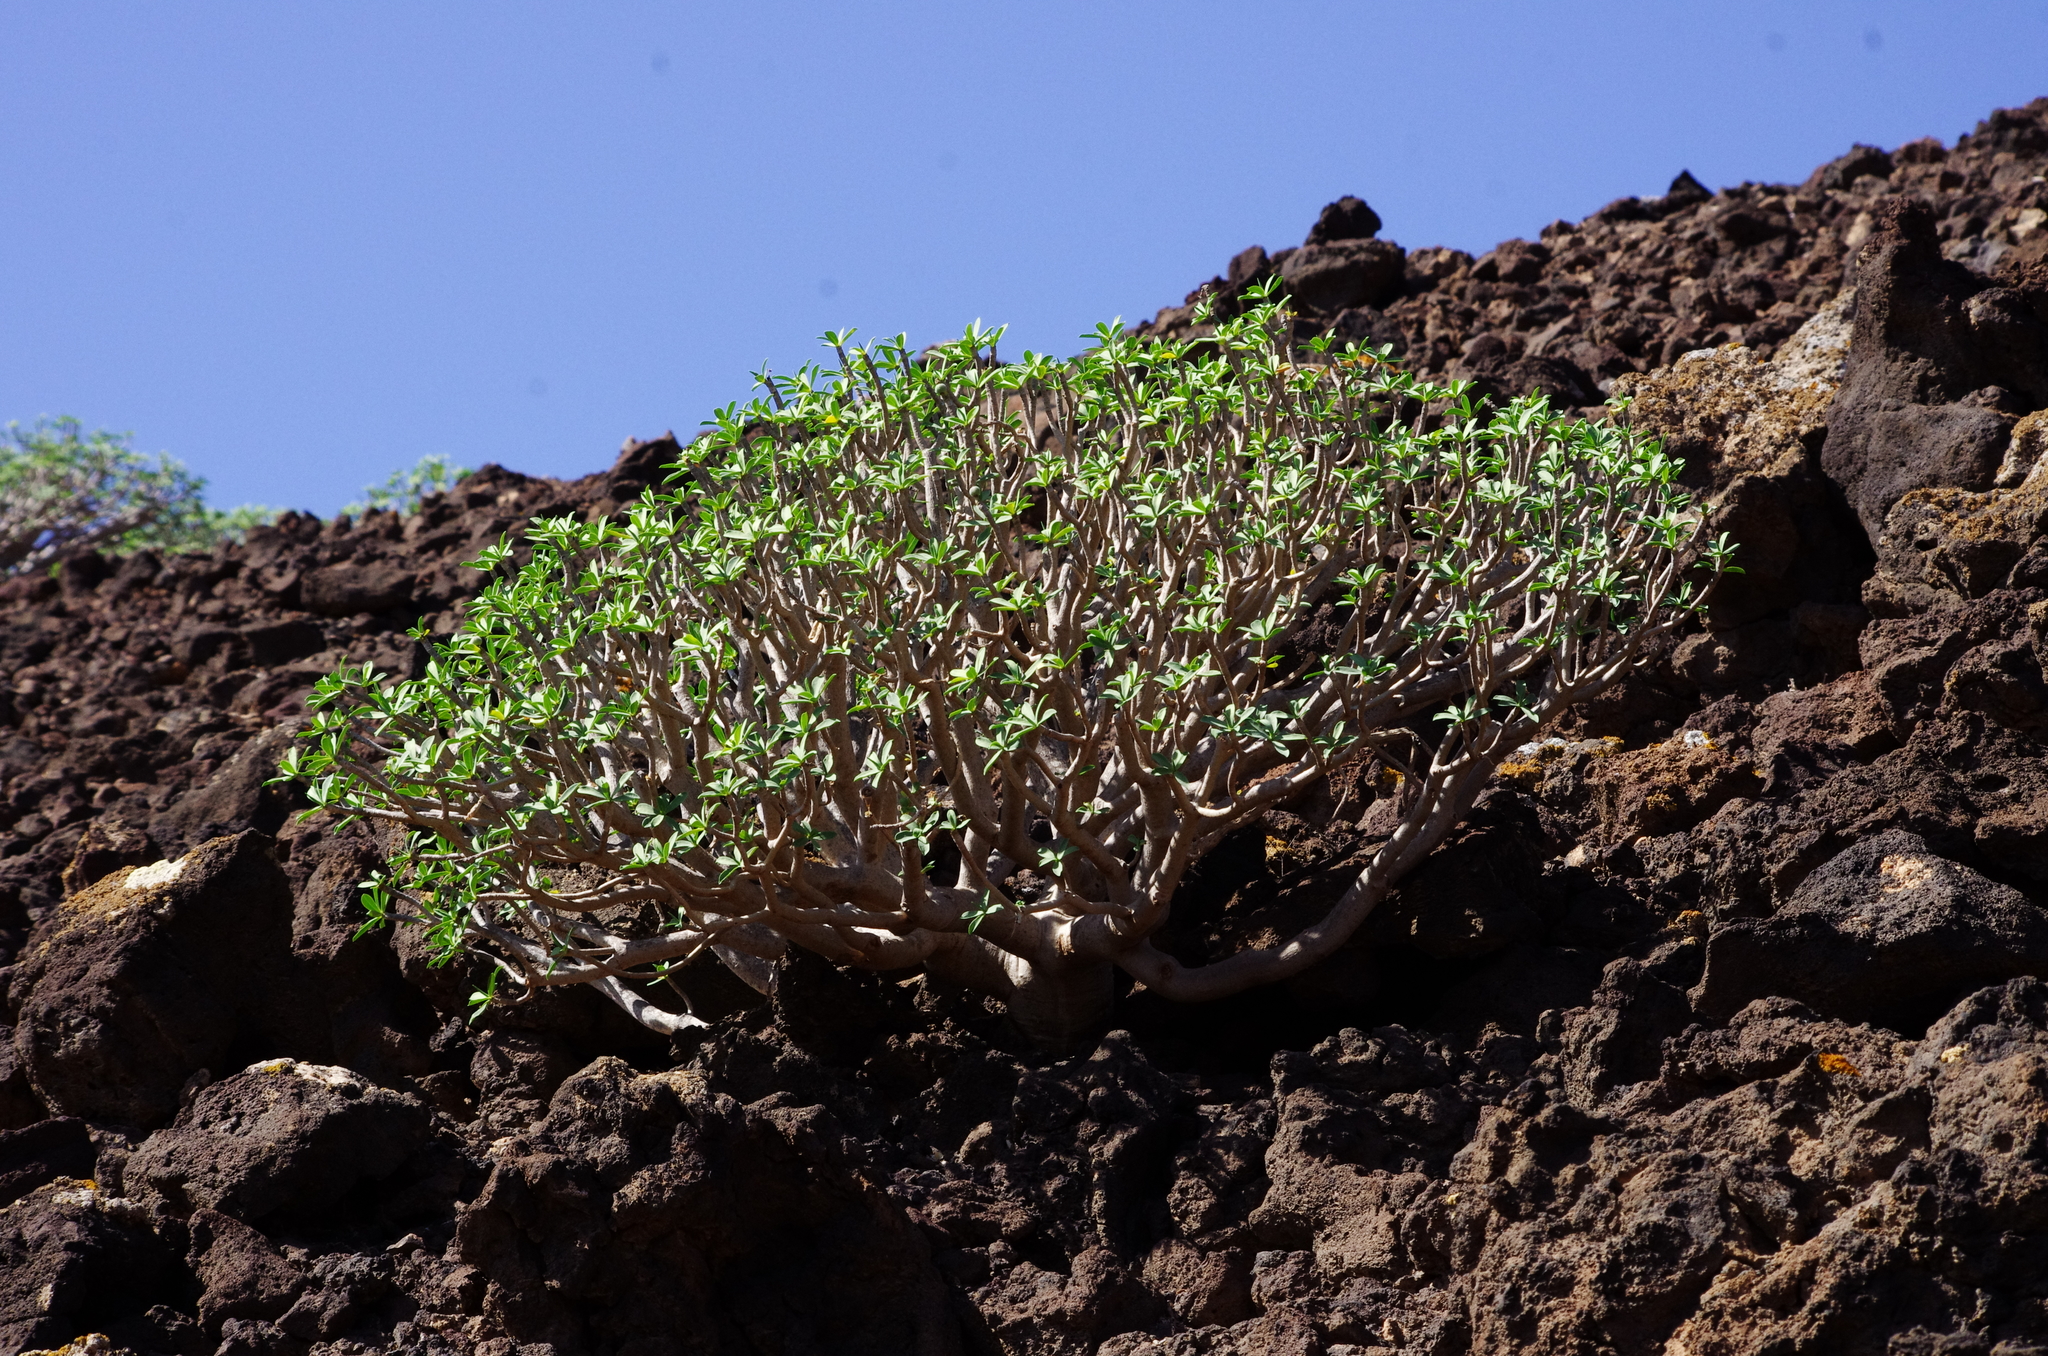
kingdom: Plantae
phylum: Tracheophyta
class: Magnoliopsida
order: Malpighiales
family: Euphorbiaceae
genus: Euphorbia
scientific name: Euphorbia balsamifera
